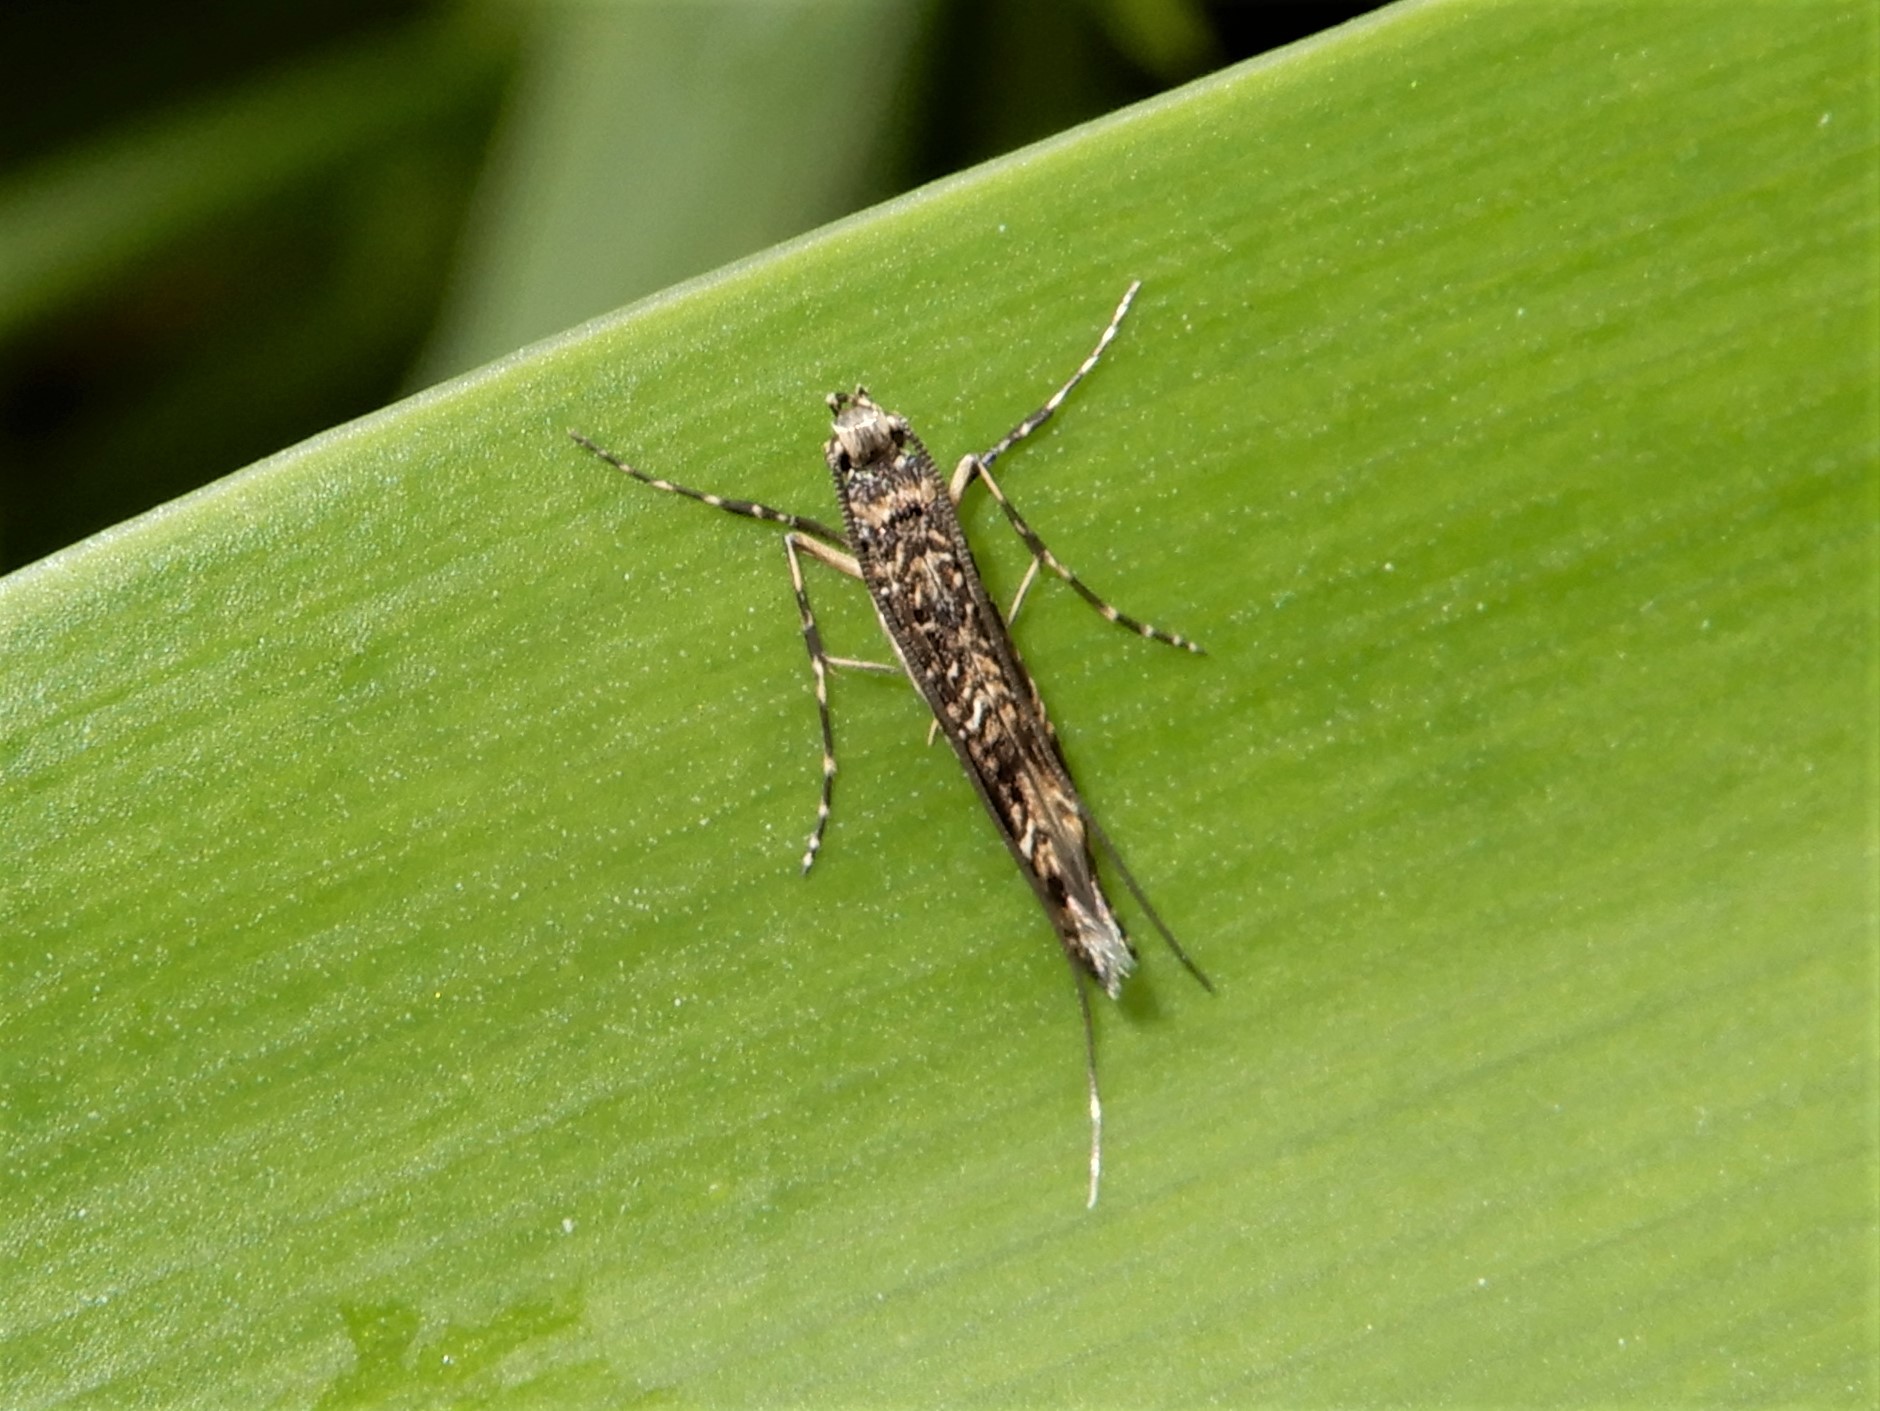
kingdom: Animalia
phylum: Arthropoda
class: Insecta
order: Lepidoptera
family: Gracillariidae
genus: Conopomorpha
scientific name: Conopomorpha cyanospila
